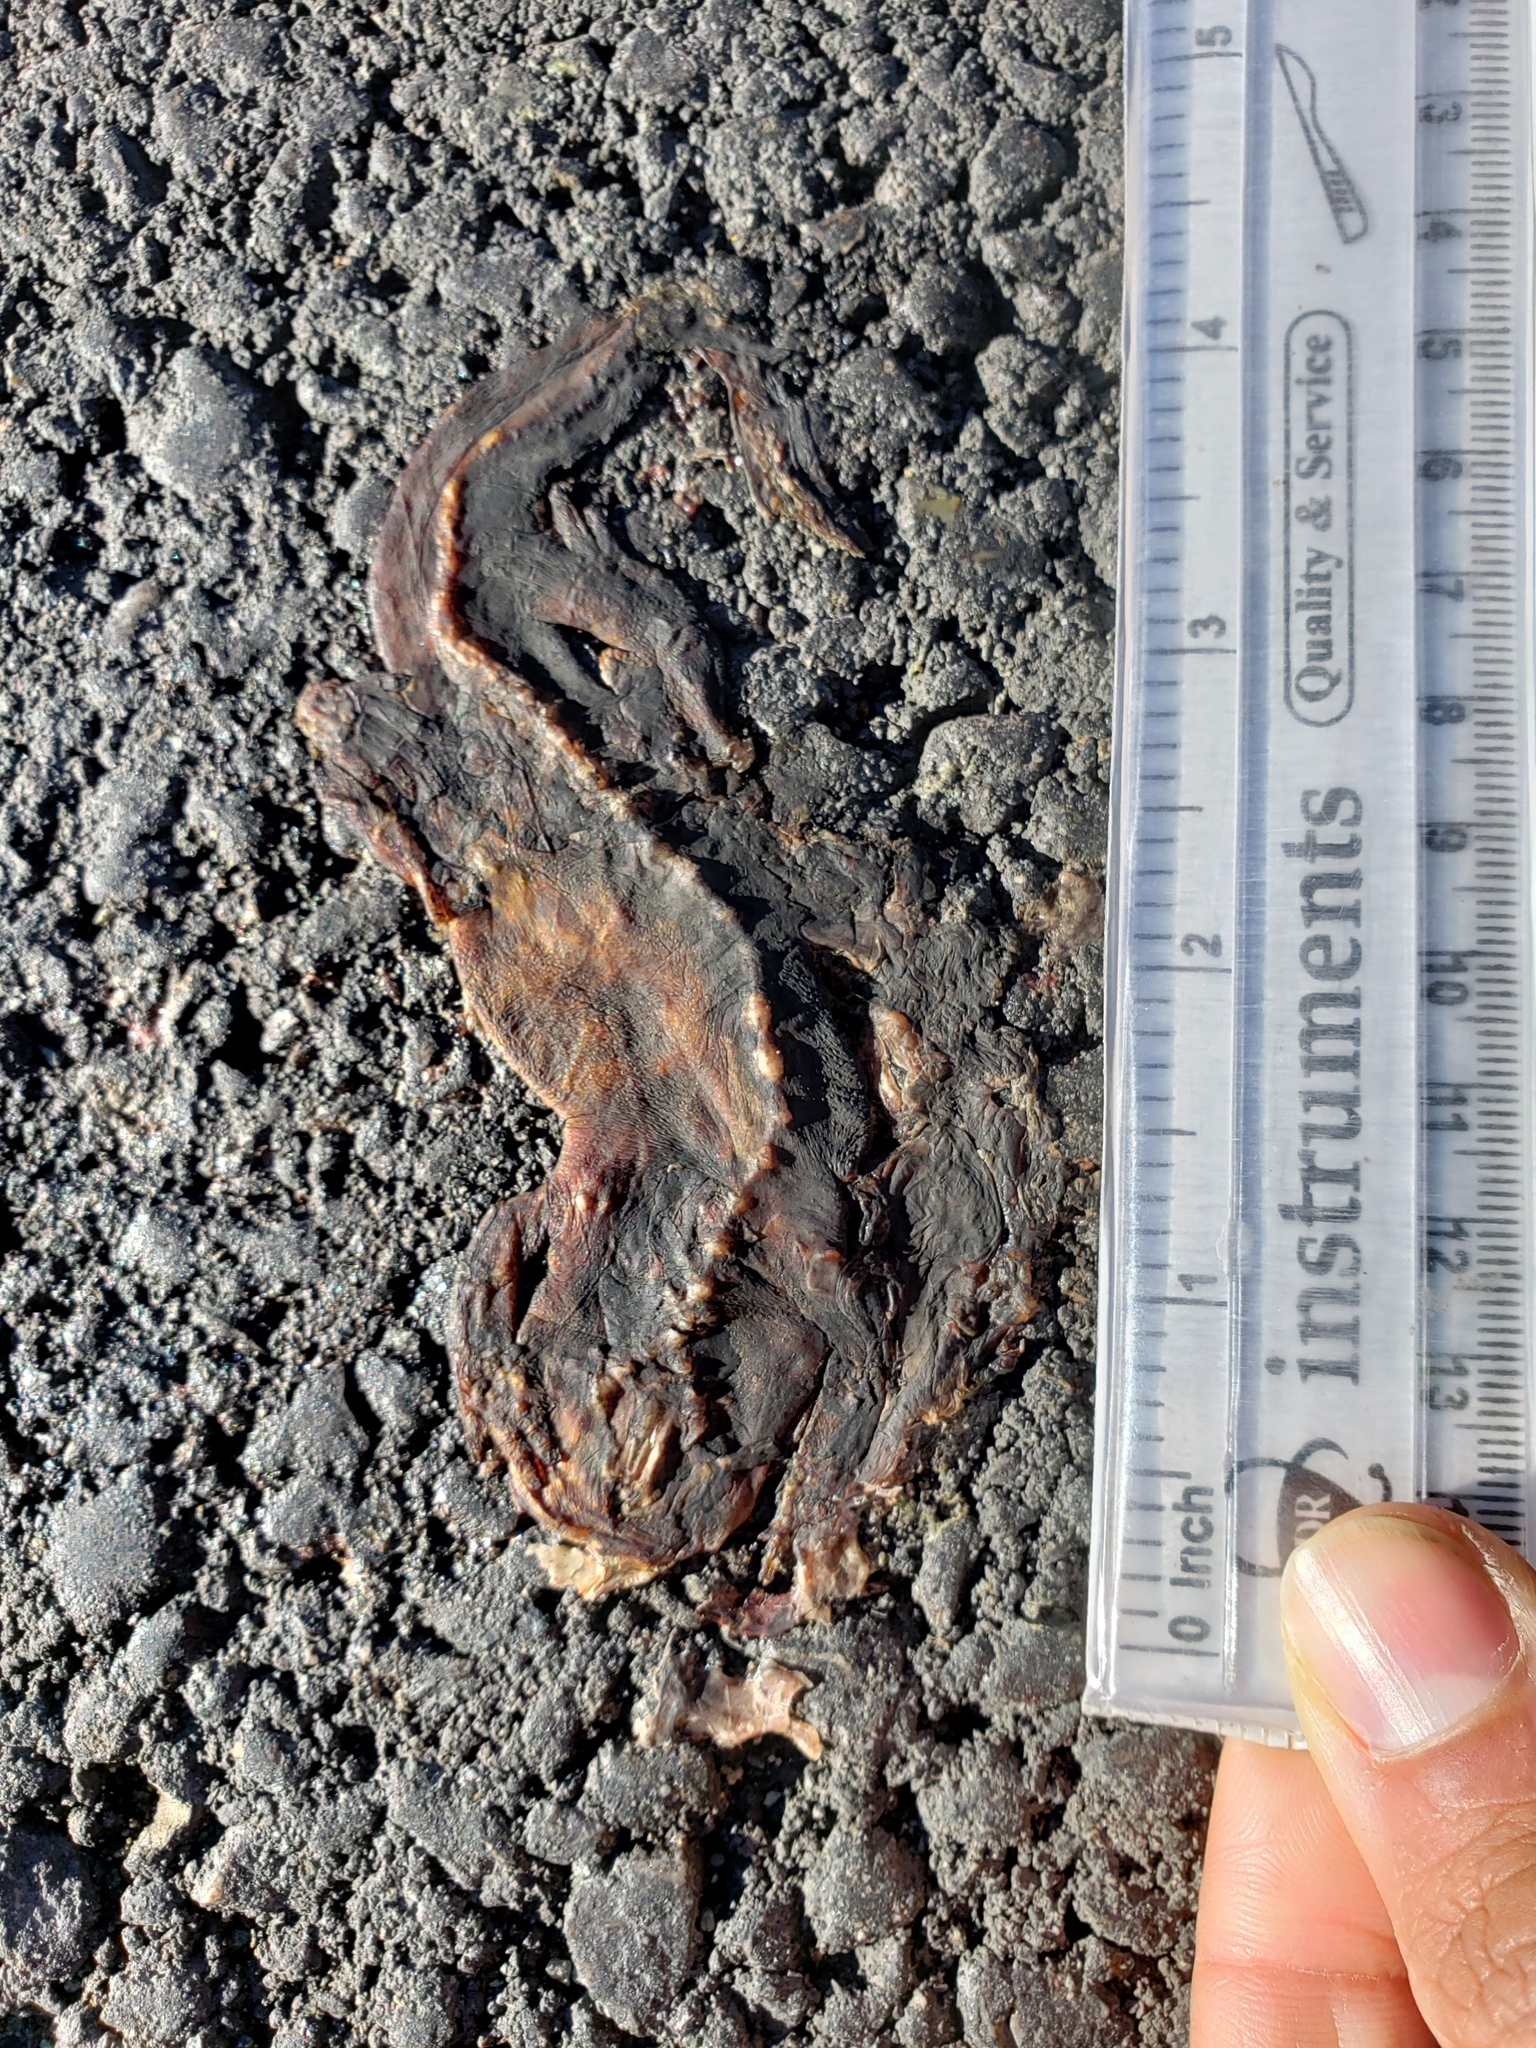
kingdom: Animalia
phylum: Chordata
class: Amphibia
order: Caudata
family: Salamandridae
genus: Taricha
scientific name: Taricha
